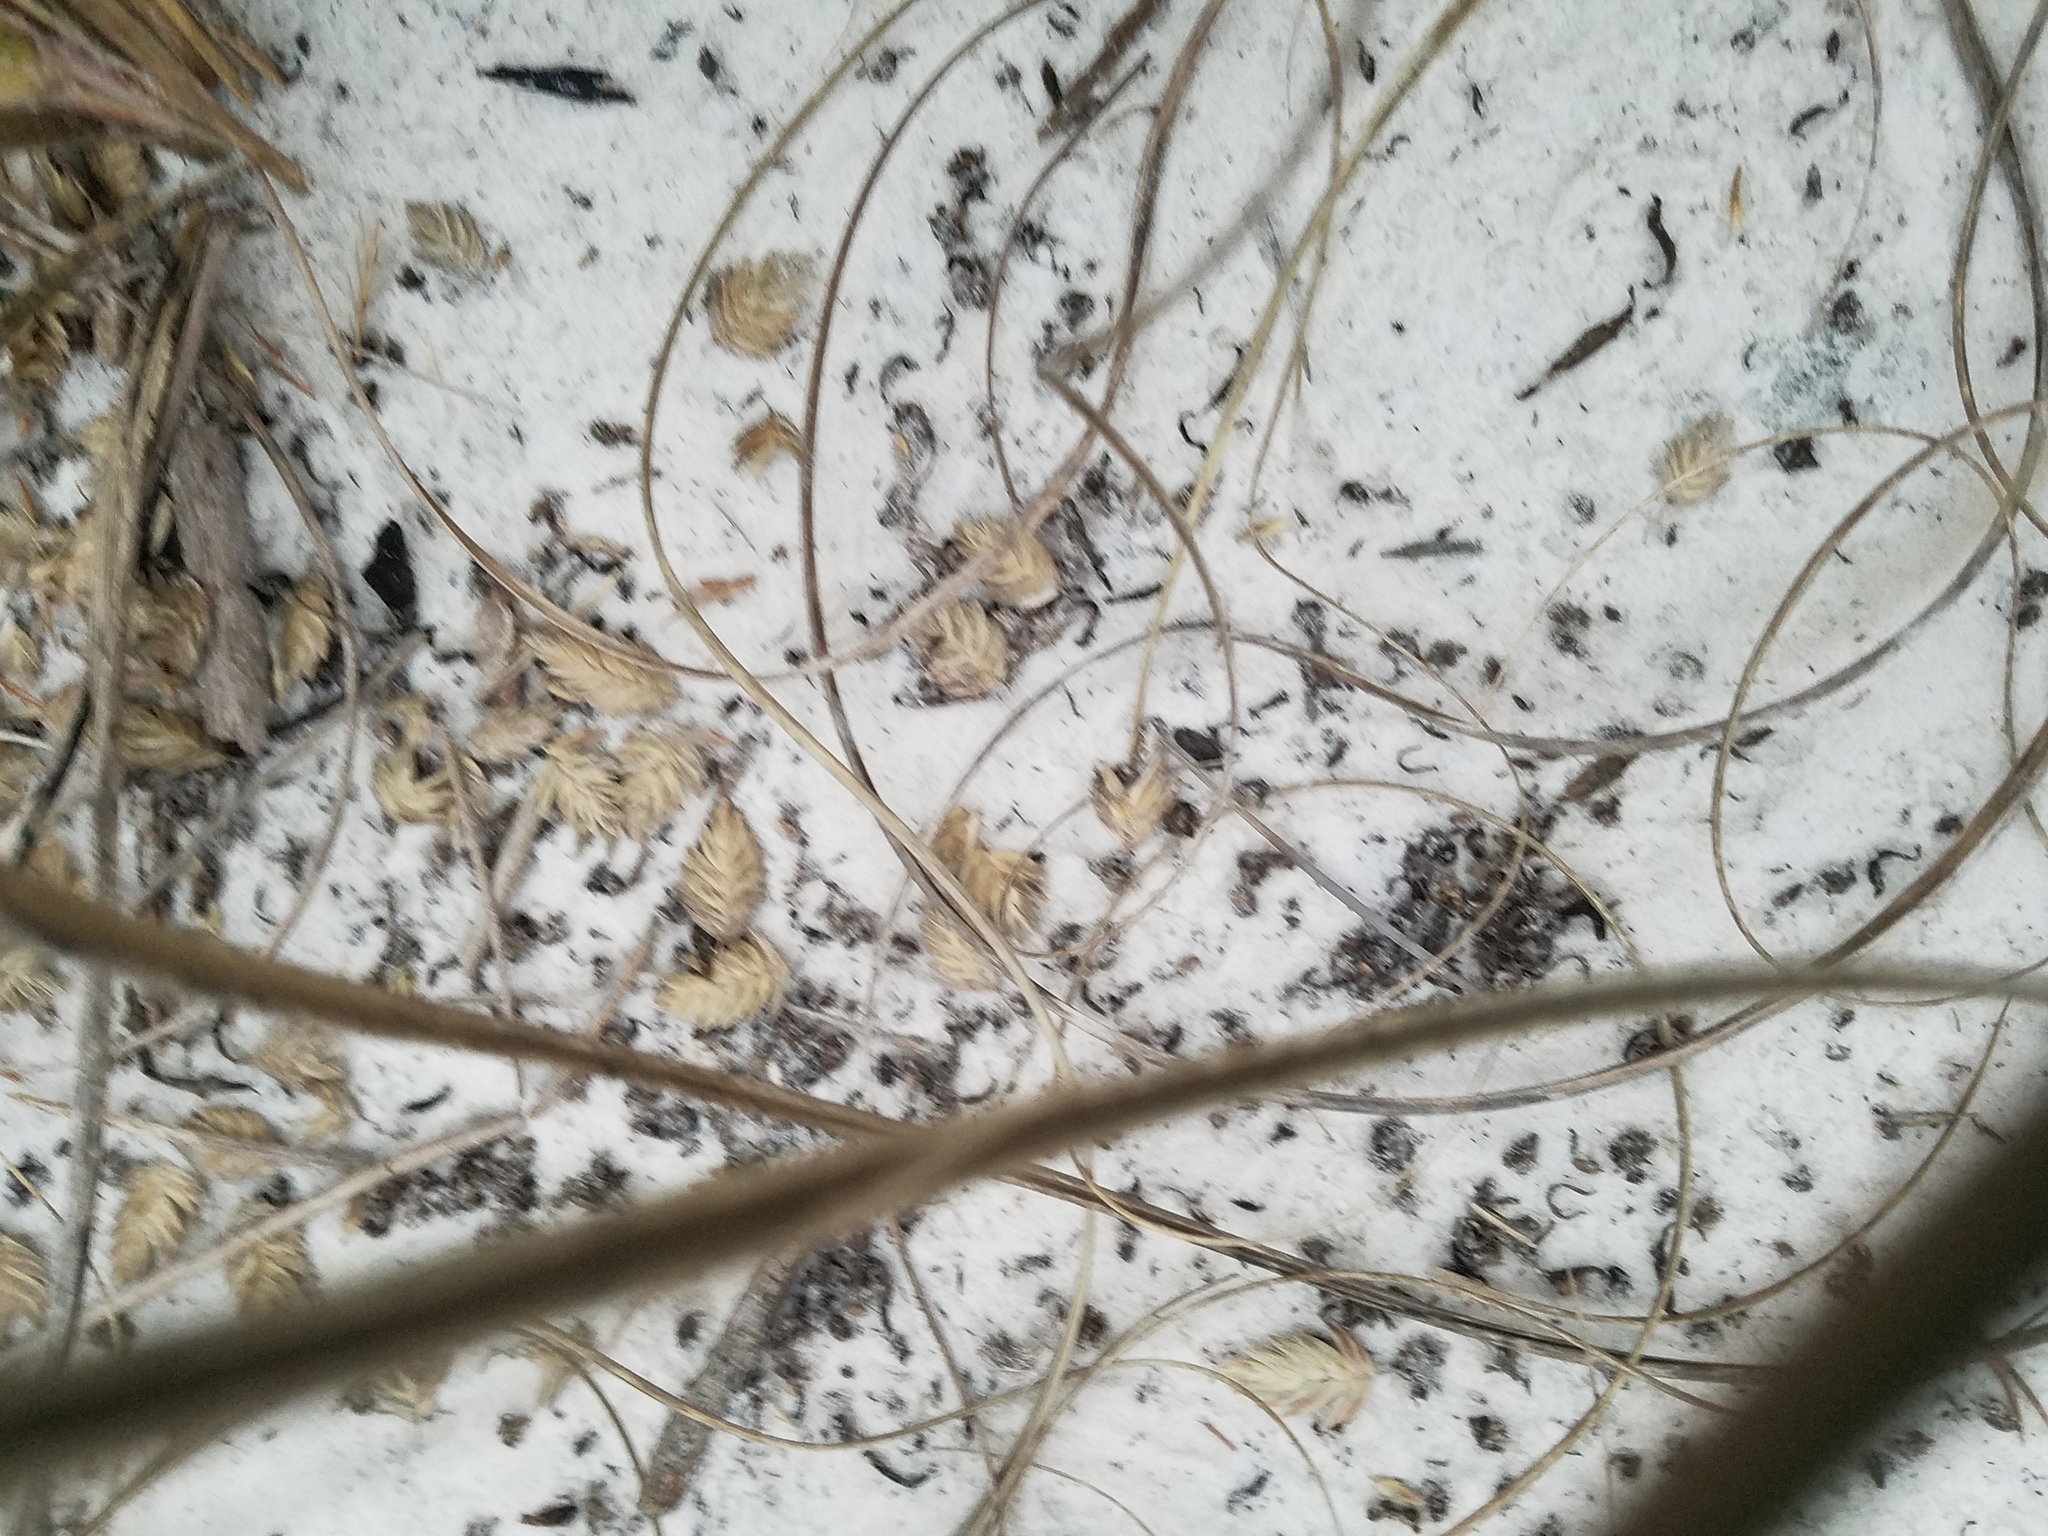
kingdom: Plantae
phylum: Tracheophyta
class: Liliopsida
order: Poales
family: Poaceae
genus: Uniola
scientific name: Uniola paniculata
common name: Seaside-oats
